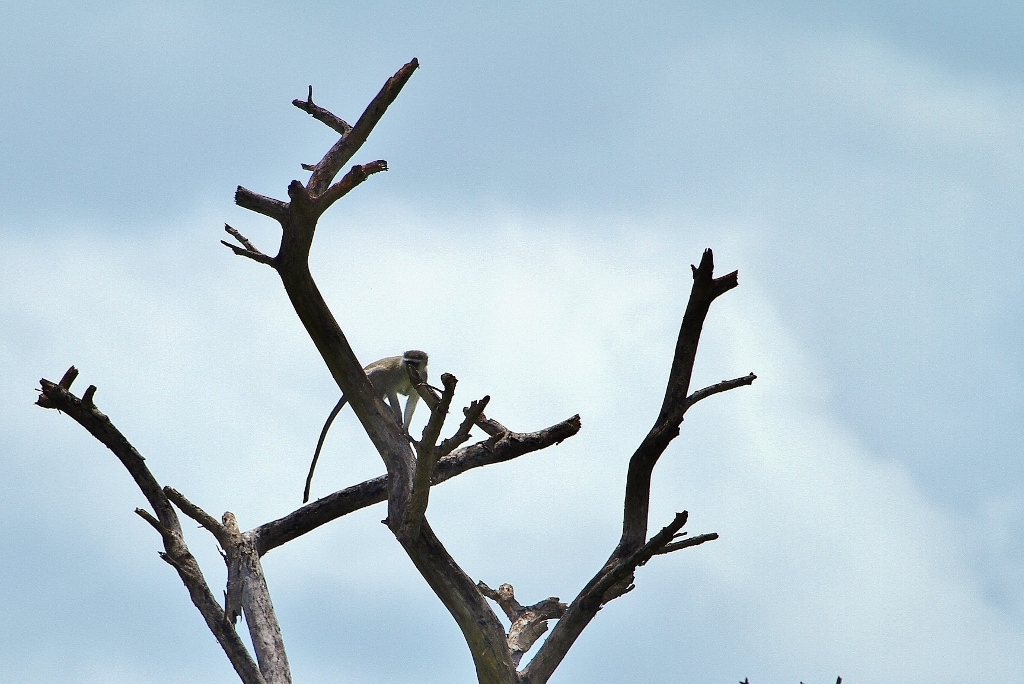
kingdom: Animalia
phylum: Chordata
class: Mammalia
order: Primates
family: Cercopithecidae
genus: Chlorocebus
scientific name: Chlorocebus pygerythrus
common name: Vervet monkey
